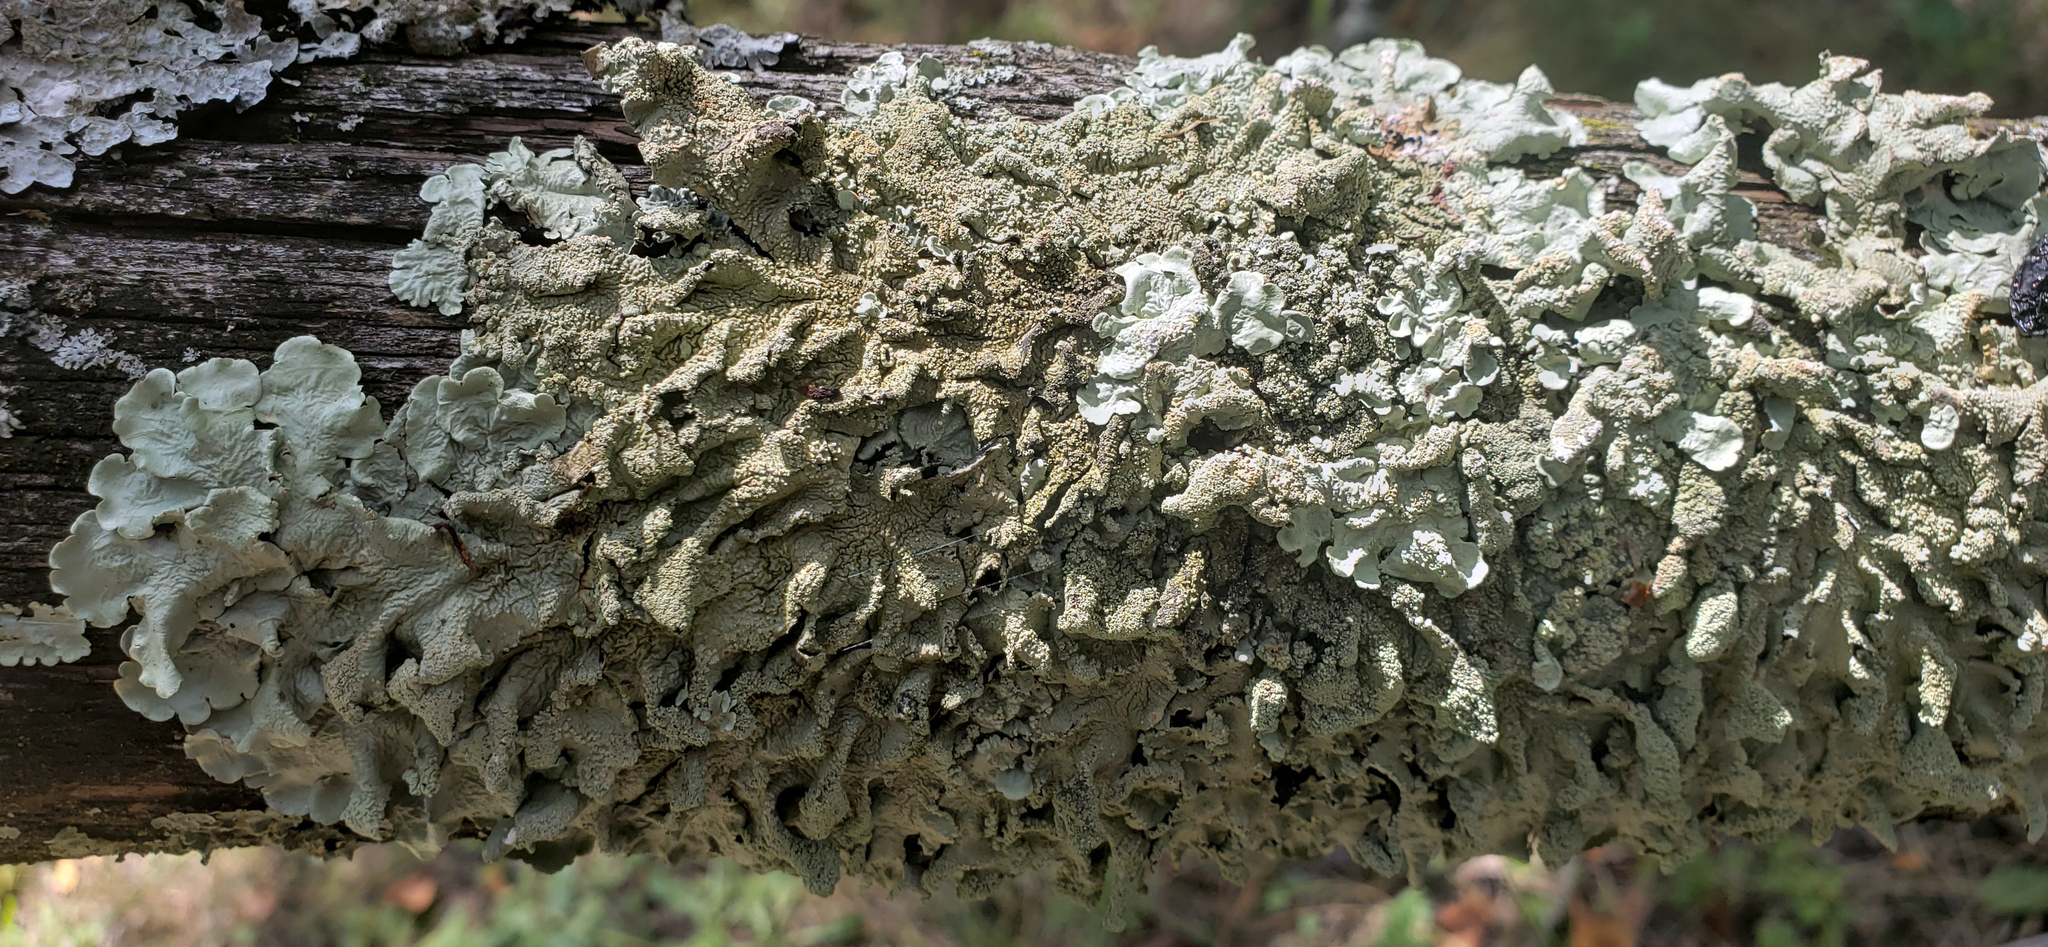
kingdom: Fungi
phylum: Ascomycota
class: Lecanoromycetes
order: Lecanorales
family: Parmeliaceae
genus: Flavoparmelia
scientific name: Flavoparmelia caperata
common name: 40-mile per hour lichen
